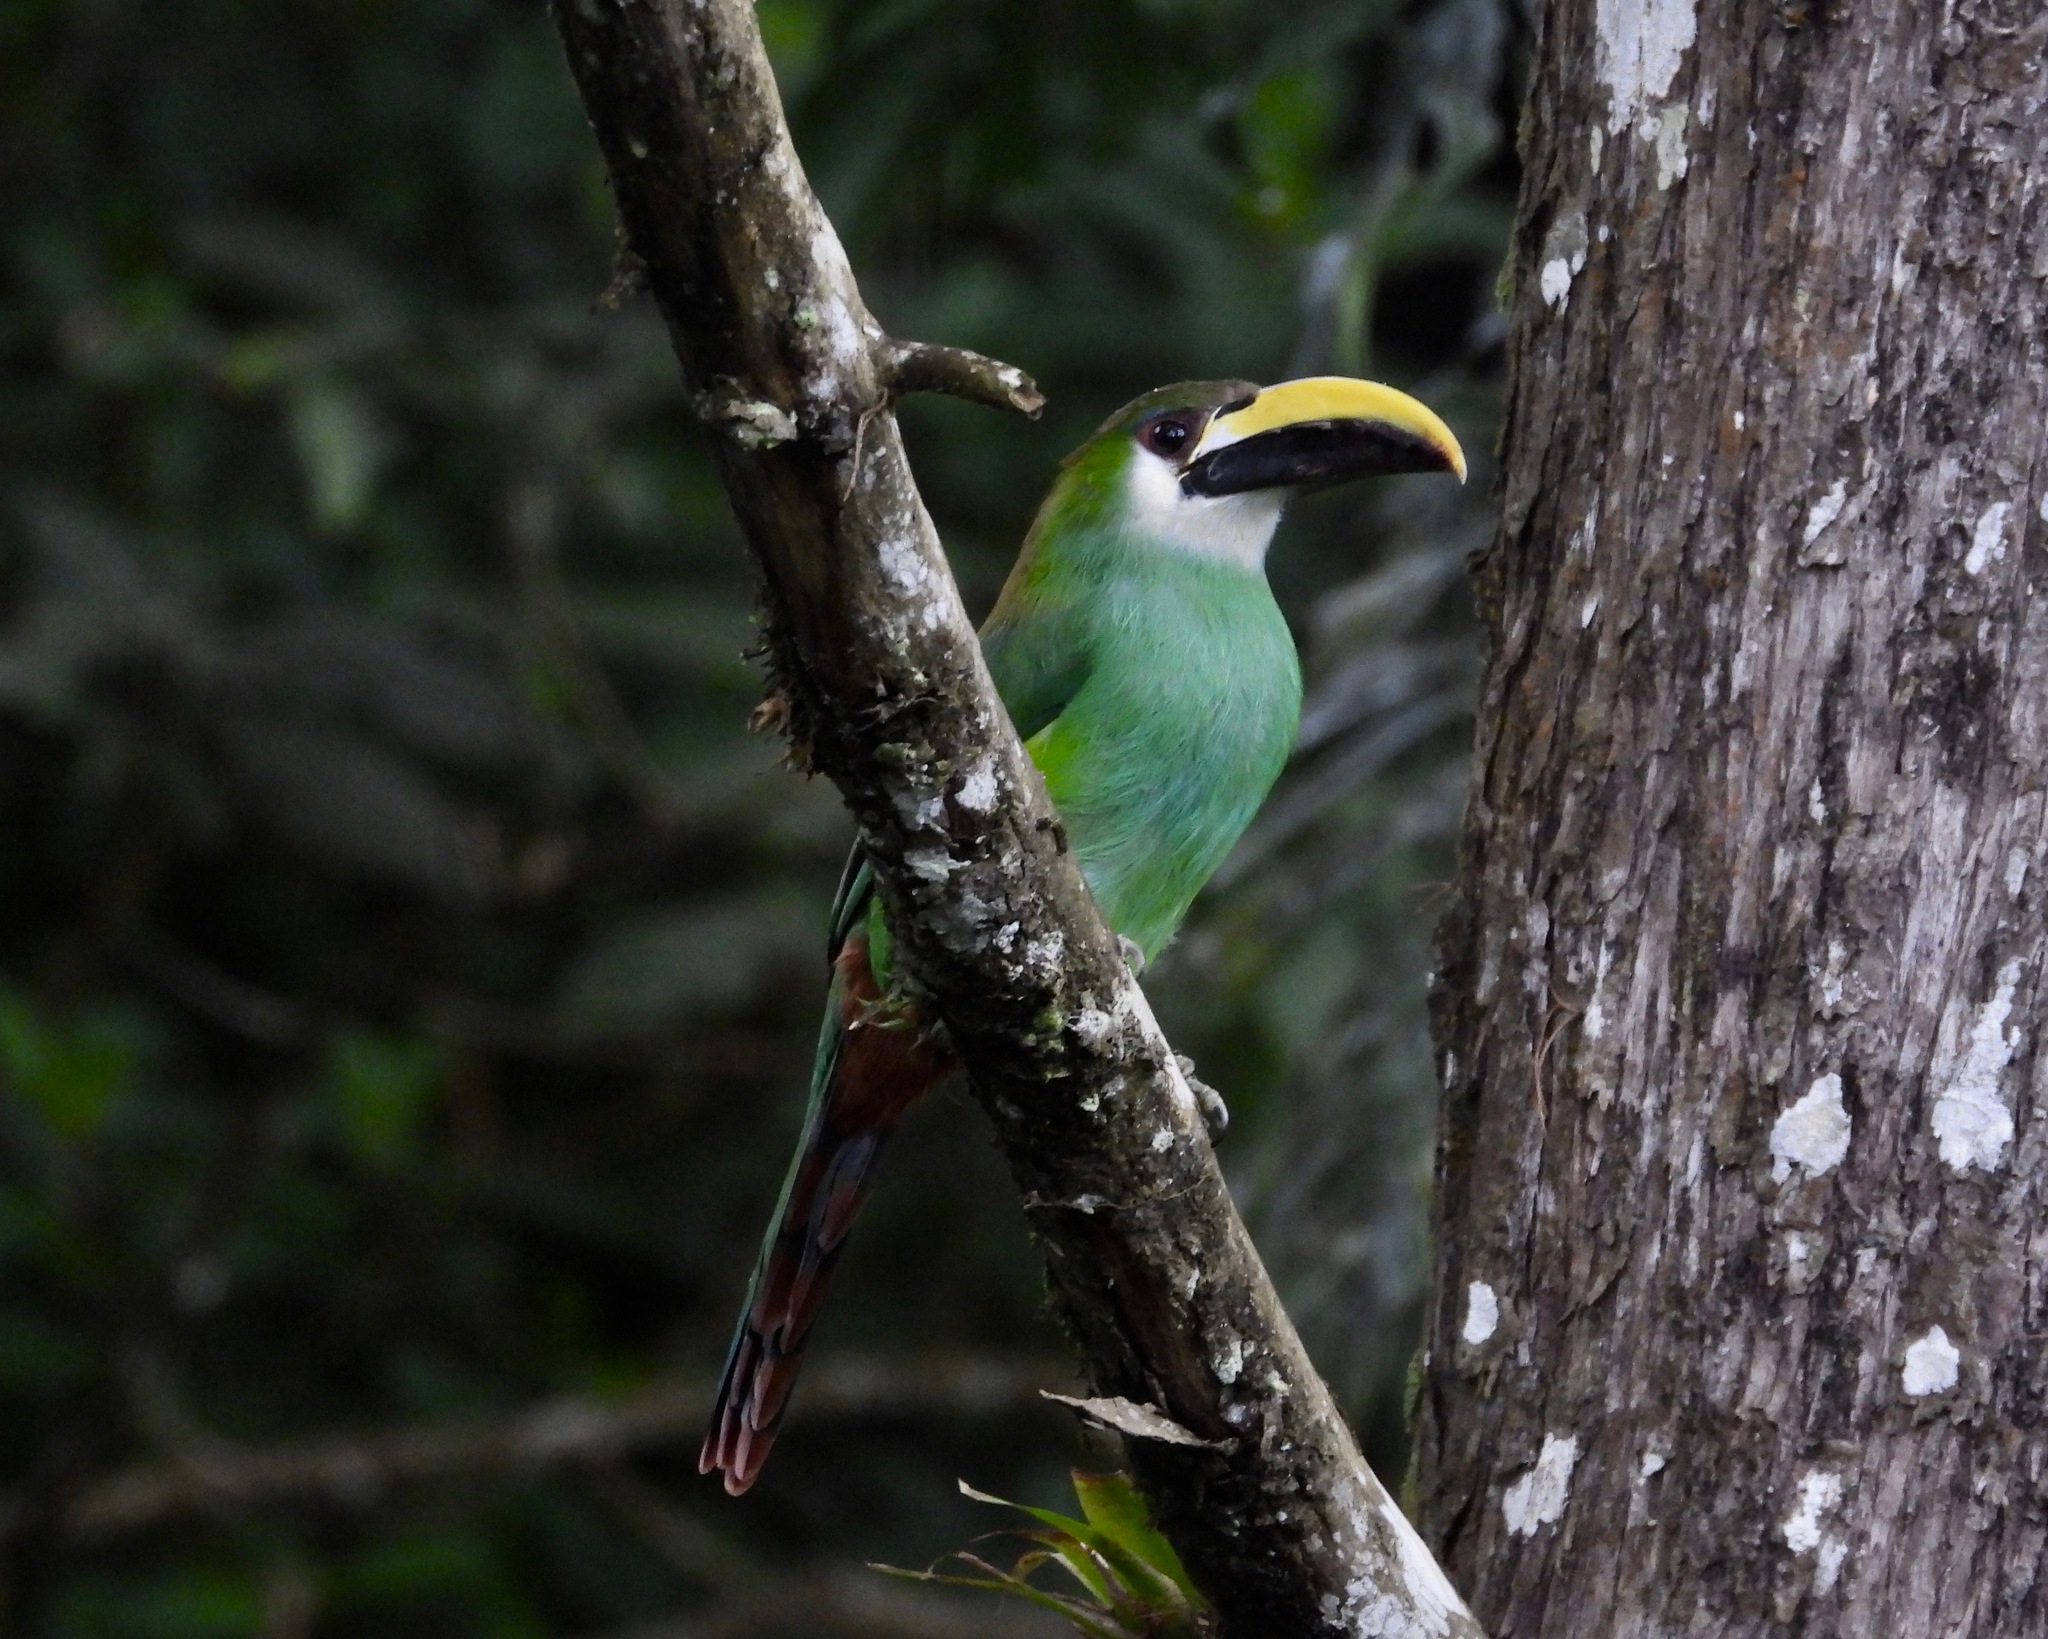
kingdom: Animalia
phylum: Chordata
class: Aves
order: Piciformes
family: Ramphastidae
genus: Aulacorhynchus
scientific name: Aulacorhynchus prasinus
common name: Emerald toucanet
